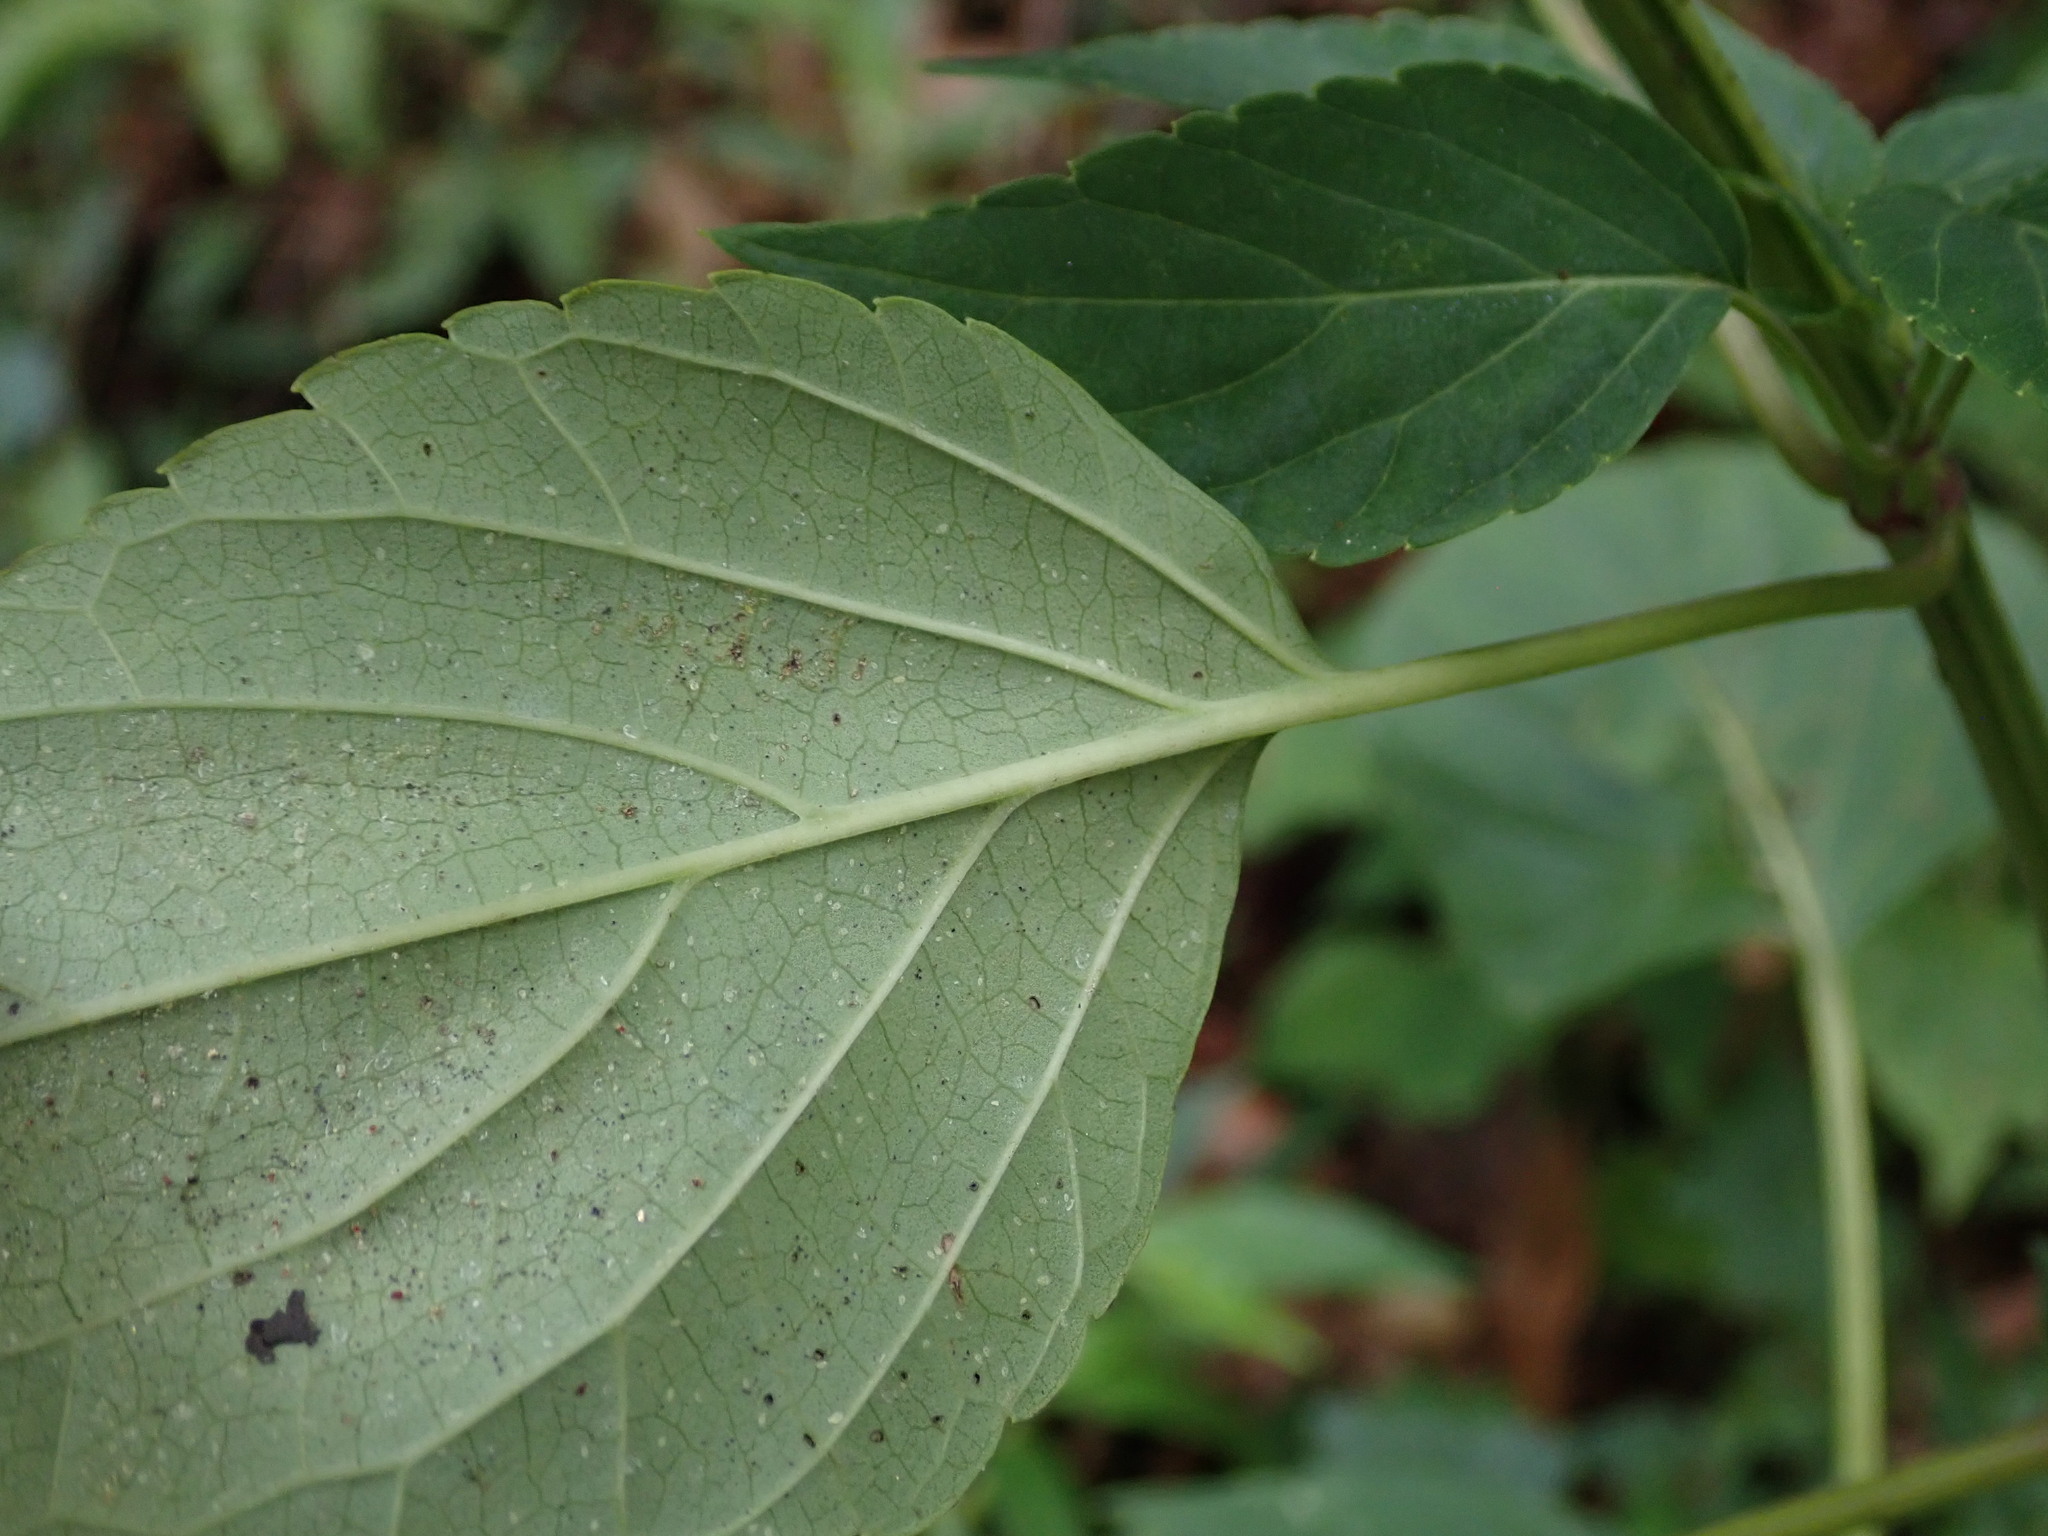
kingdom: Plantae
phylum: Tracheophyta
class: Magnoliopsida
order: Lamiales
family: Lamiaceae
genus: Salvia
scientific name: Salvia splendens
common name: Scarlet sage
